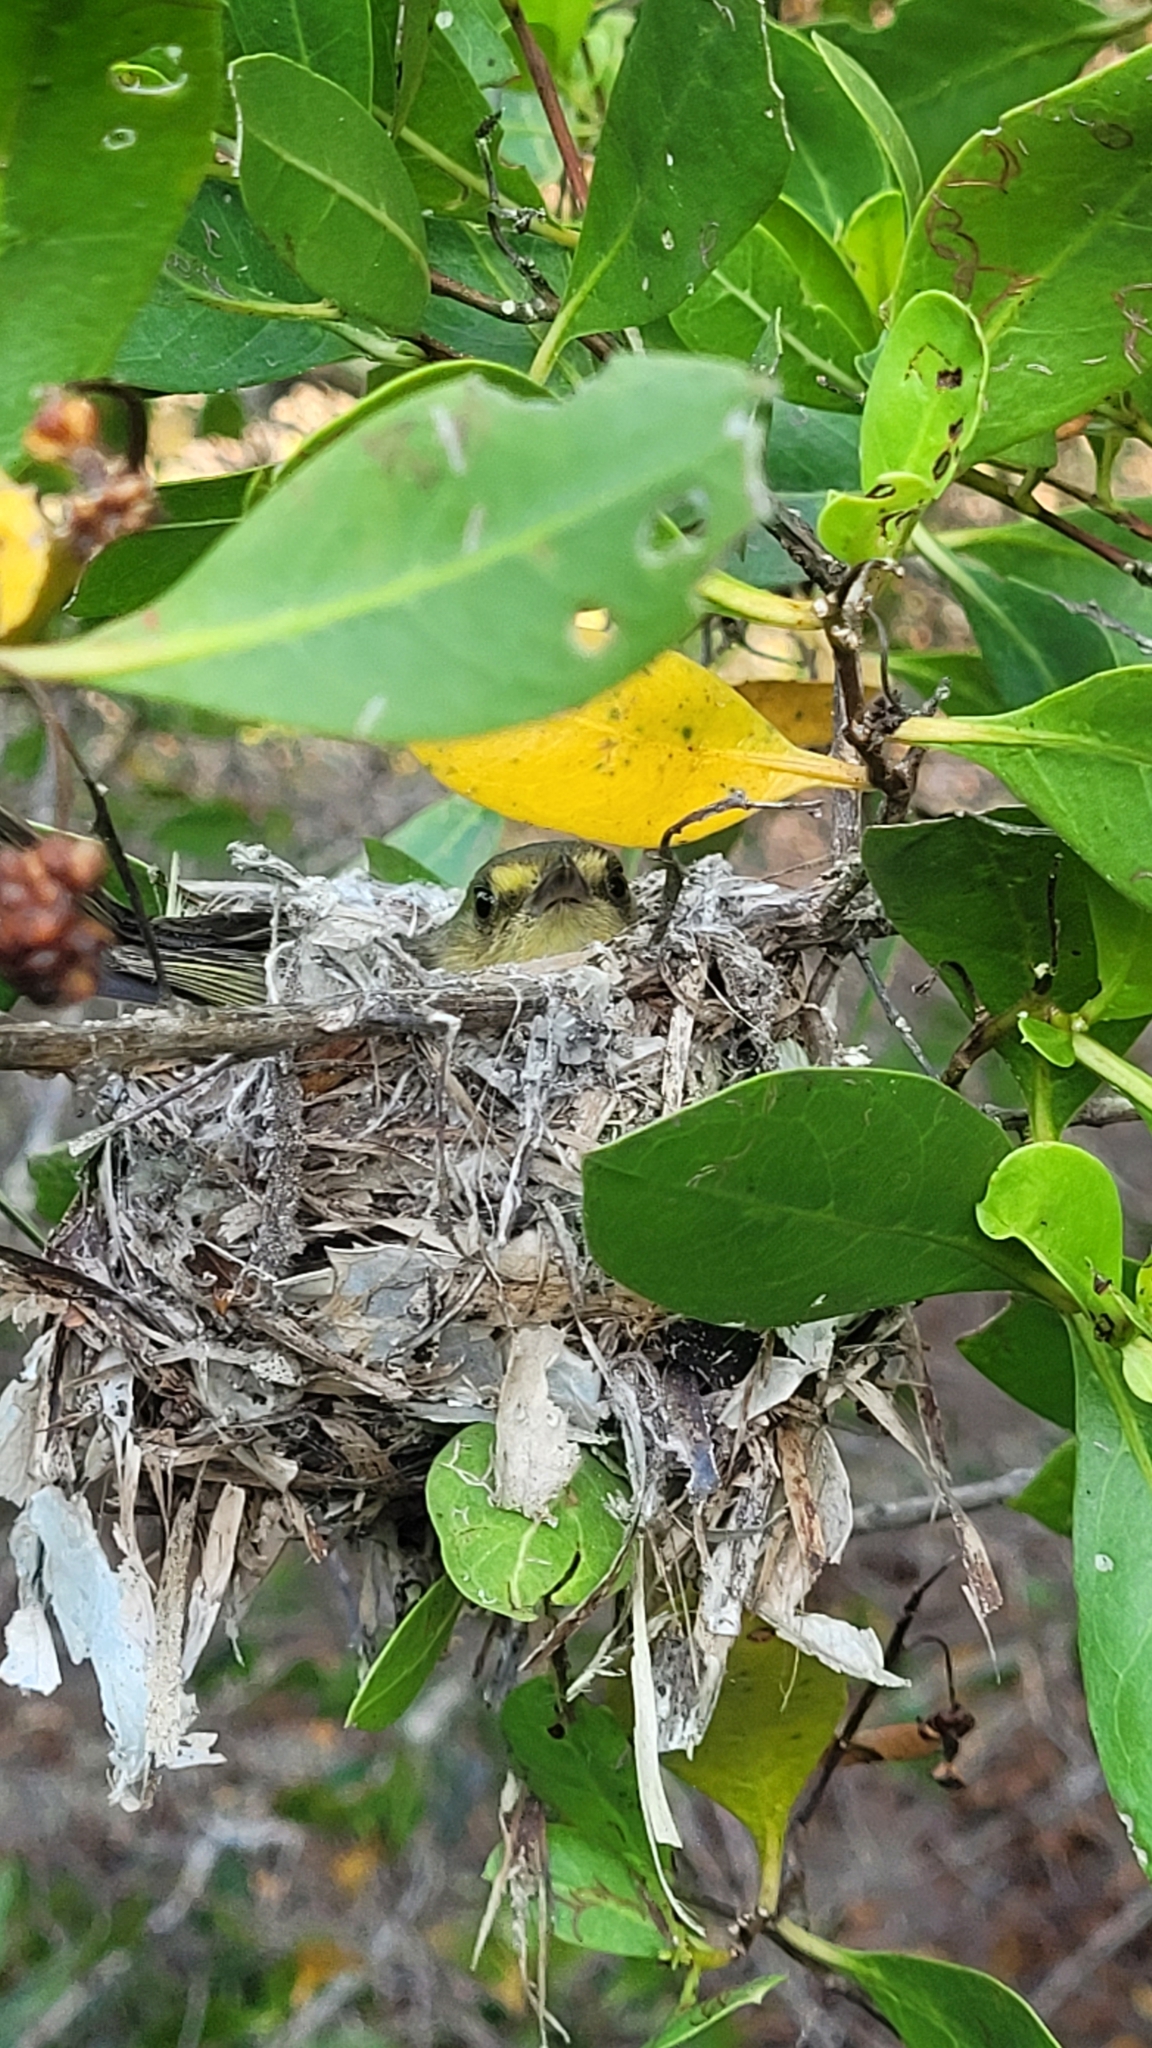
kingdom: Animalia
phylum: Chordata
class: Aves
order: Passeriformes
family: Vireonidae
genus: Vireo
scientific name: Vireo pallens
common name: Mangrove vireo
